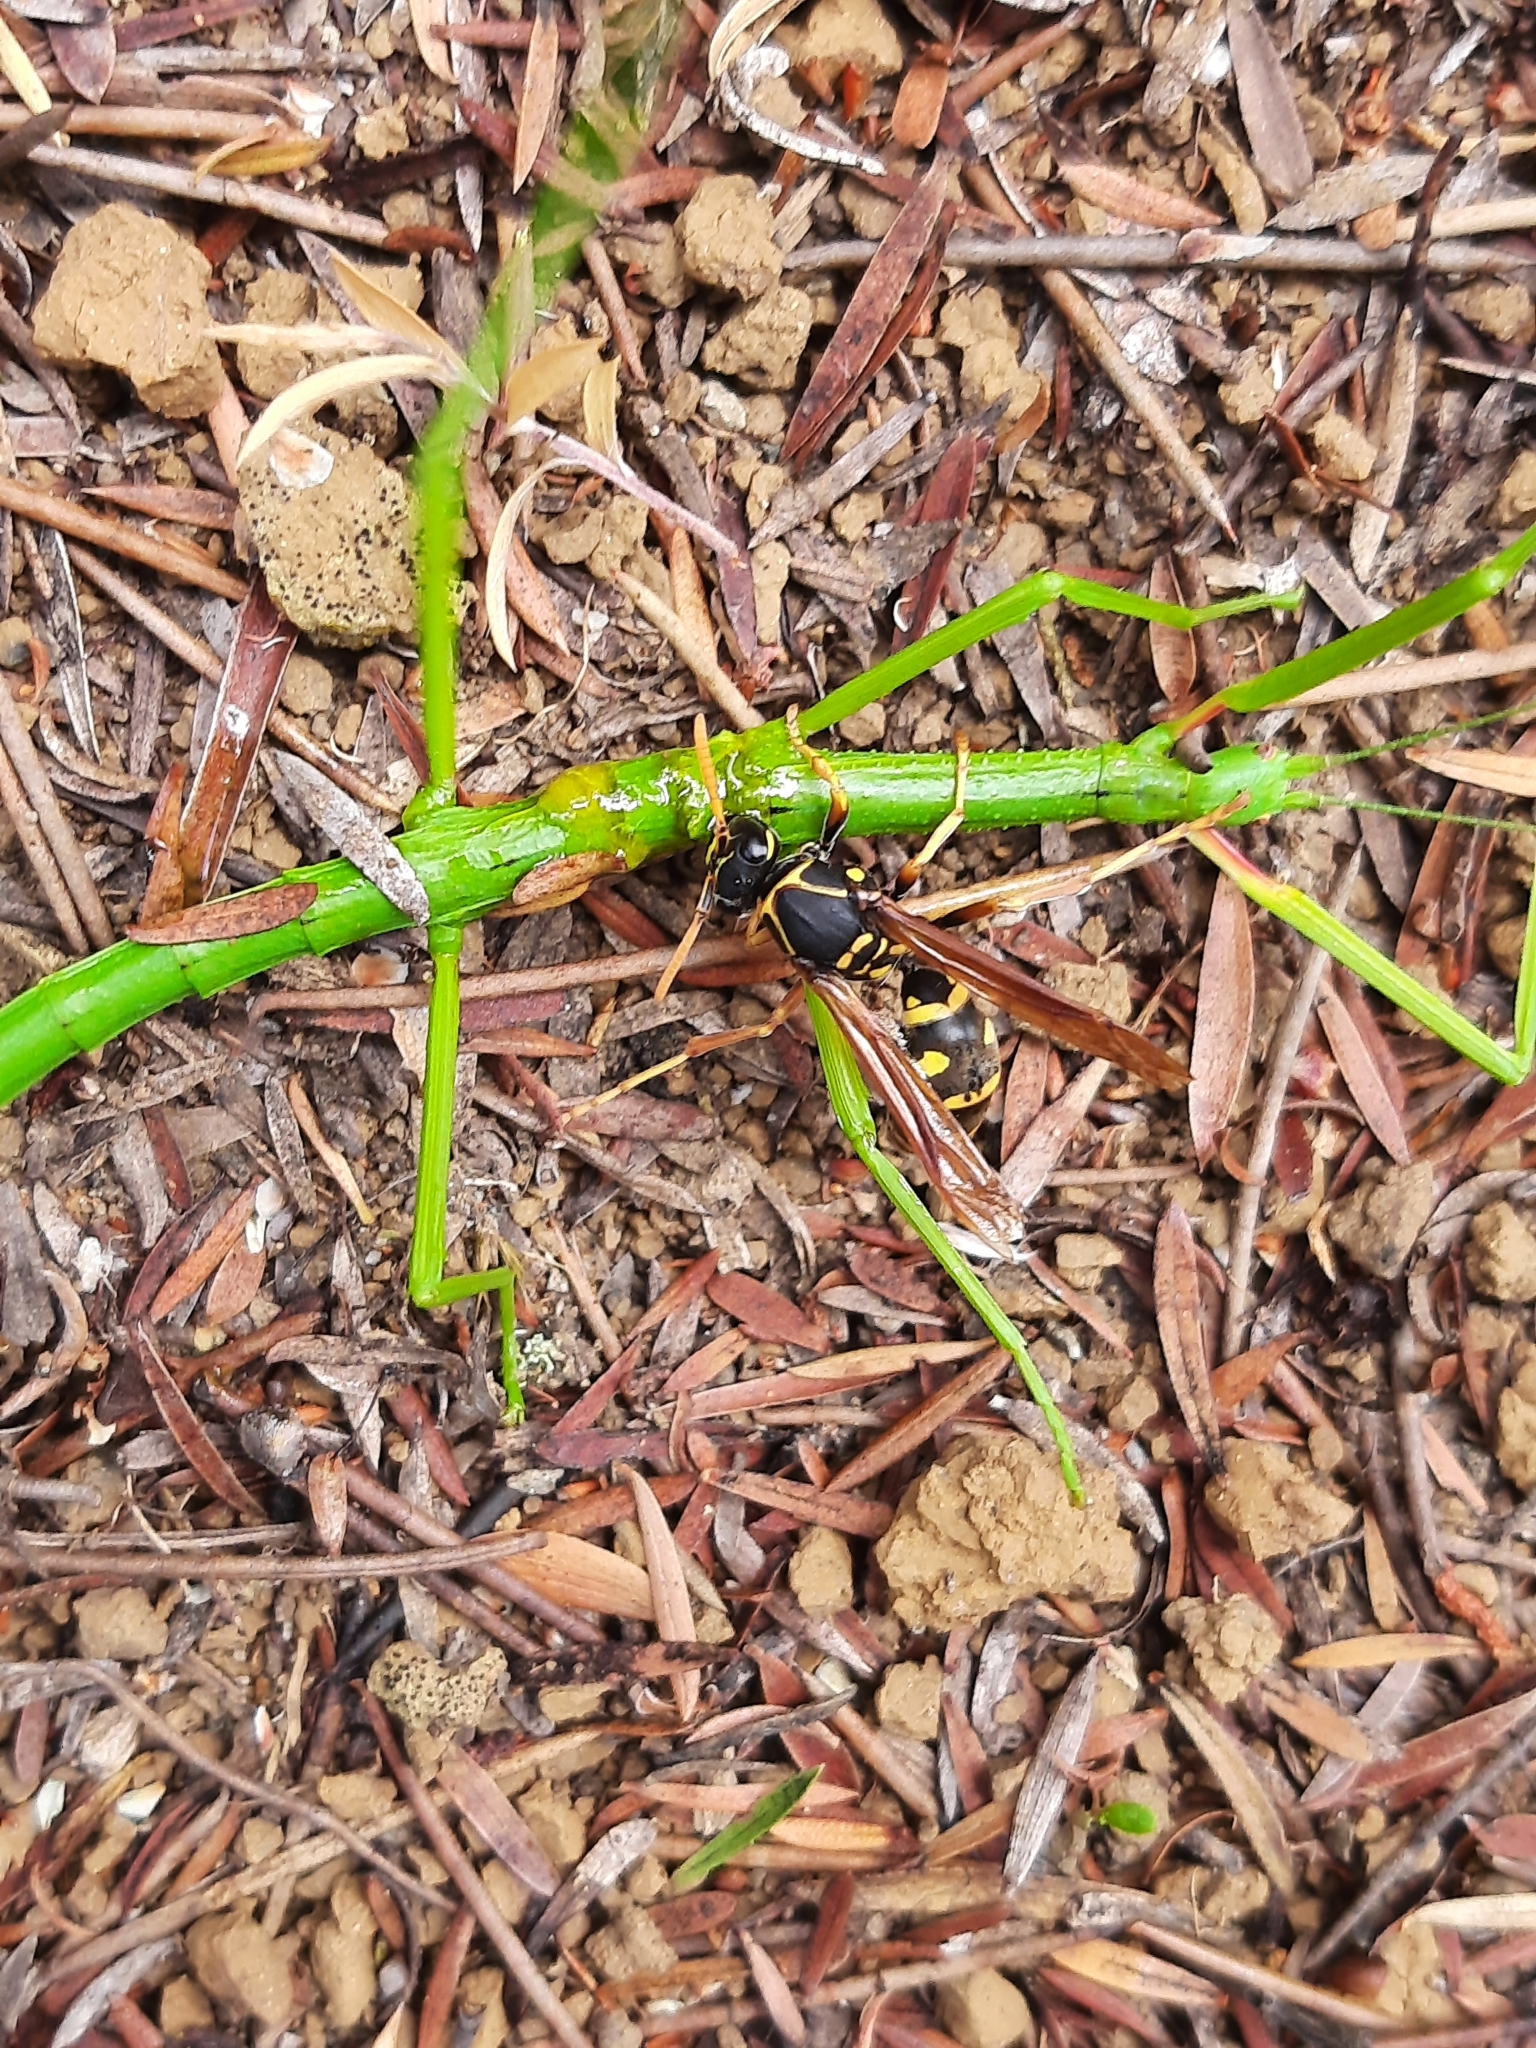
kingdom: Animalia
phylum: Arthropoda
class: Insecta
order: Hymenoptera
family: Eumenidae
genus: Polistes
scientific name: Polistes chinensis
